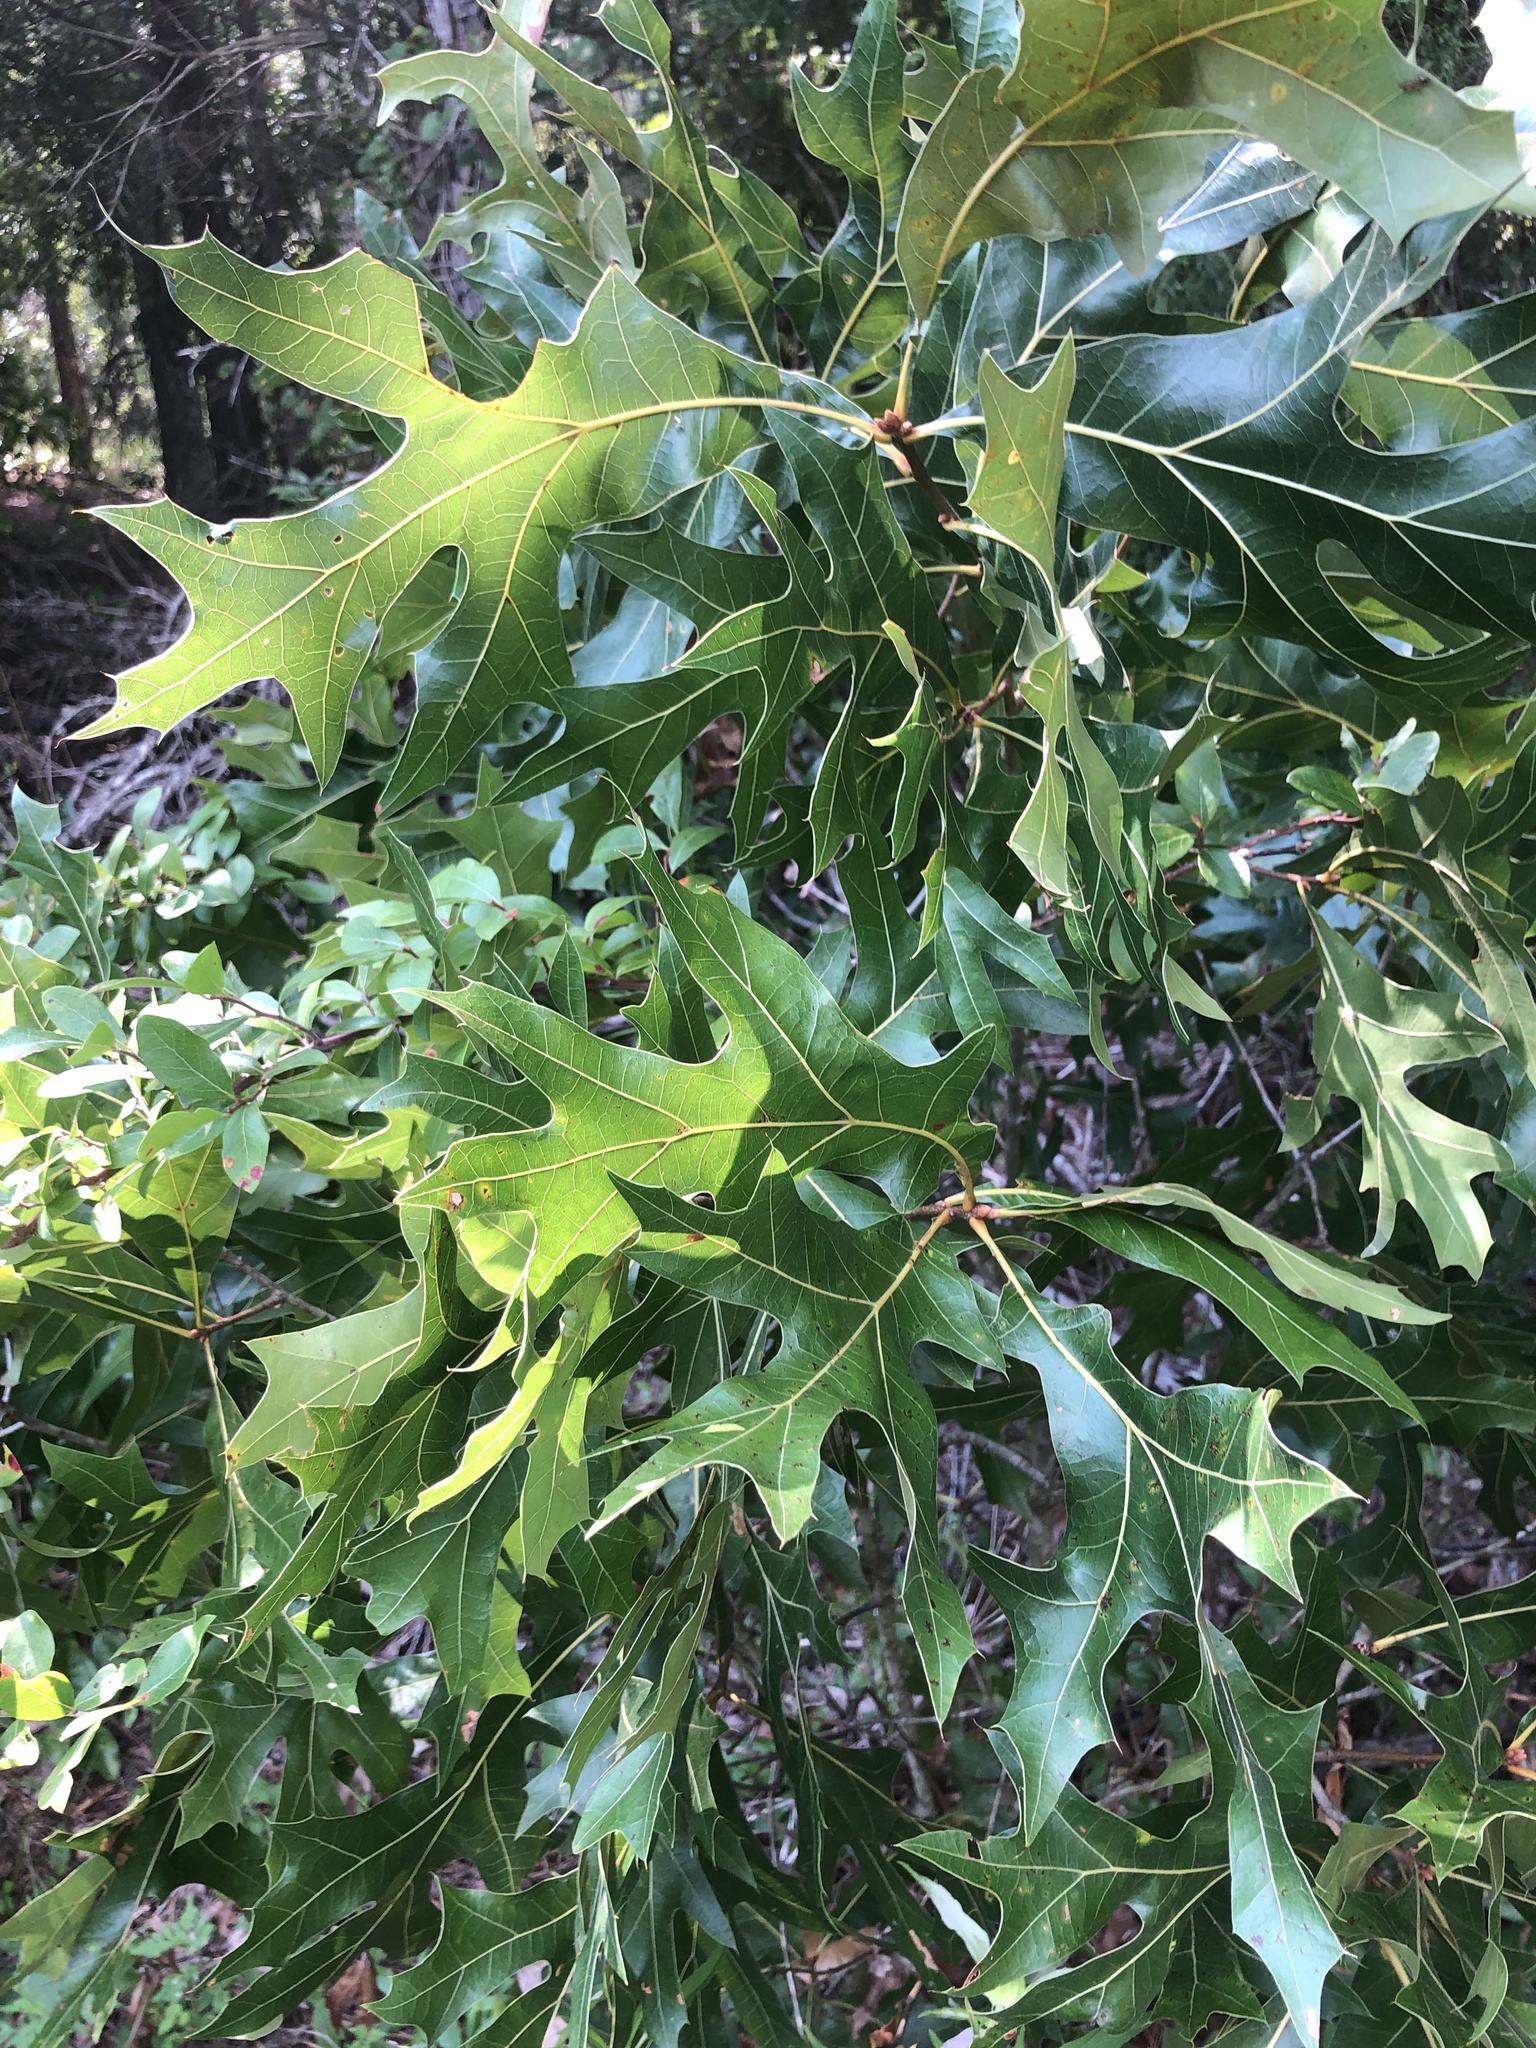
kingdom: Plantae
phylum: Tracheophyta
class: Magnoliopsida
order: Fagales
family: Fagaceae
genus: Quercus
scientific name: Quercus laevis
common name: Turkey oak
